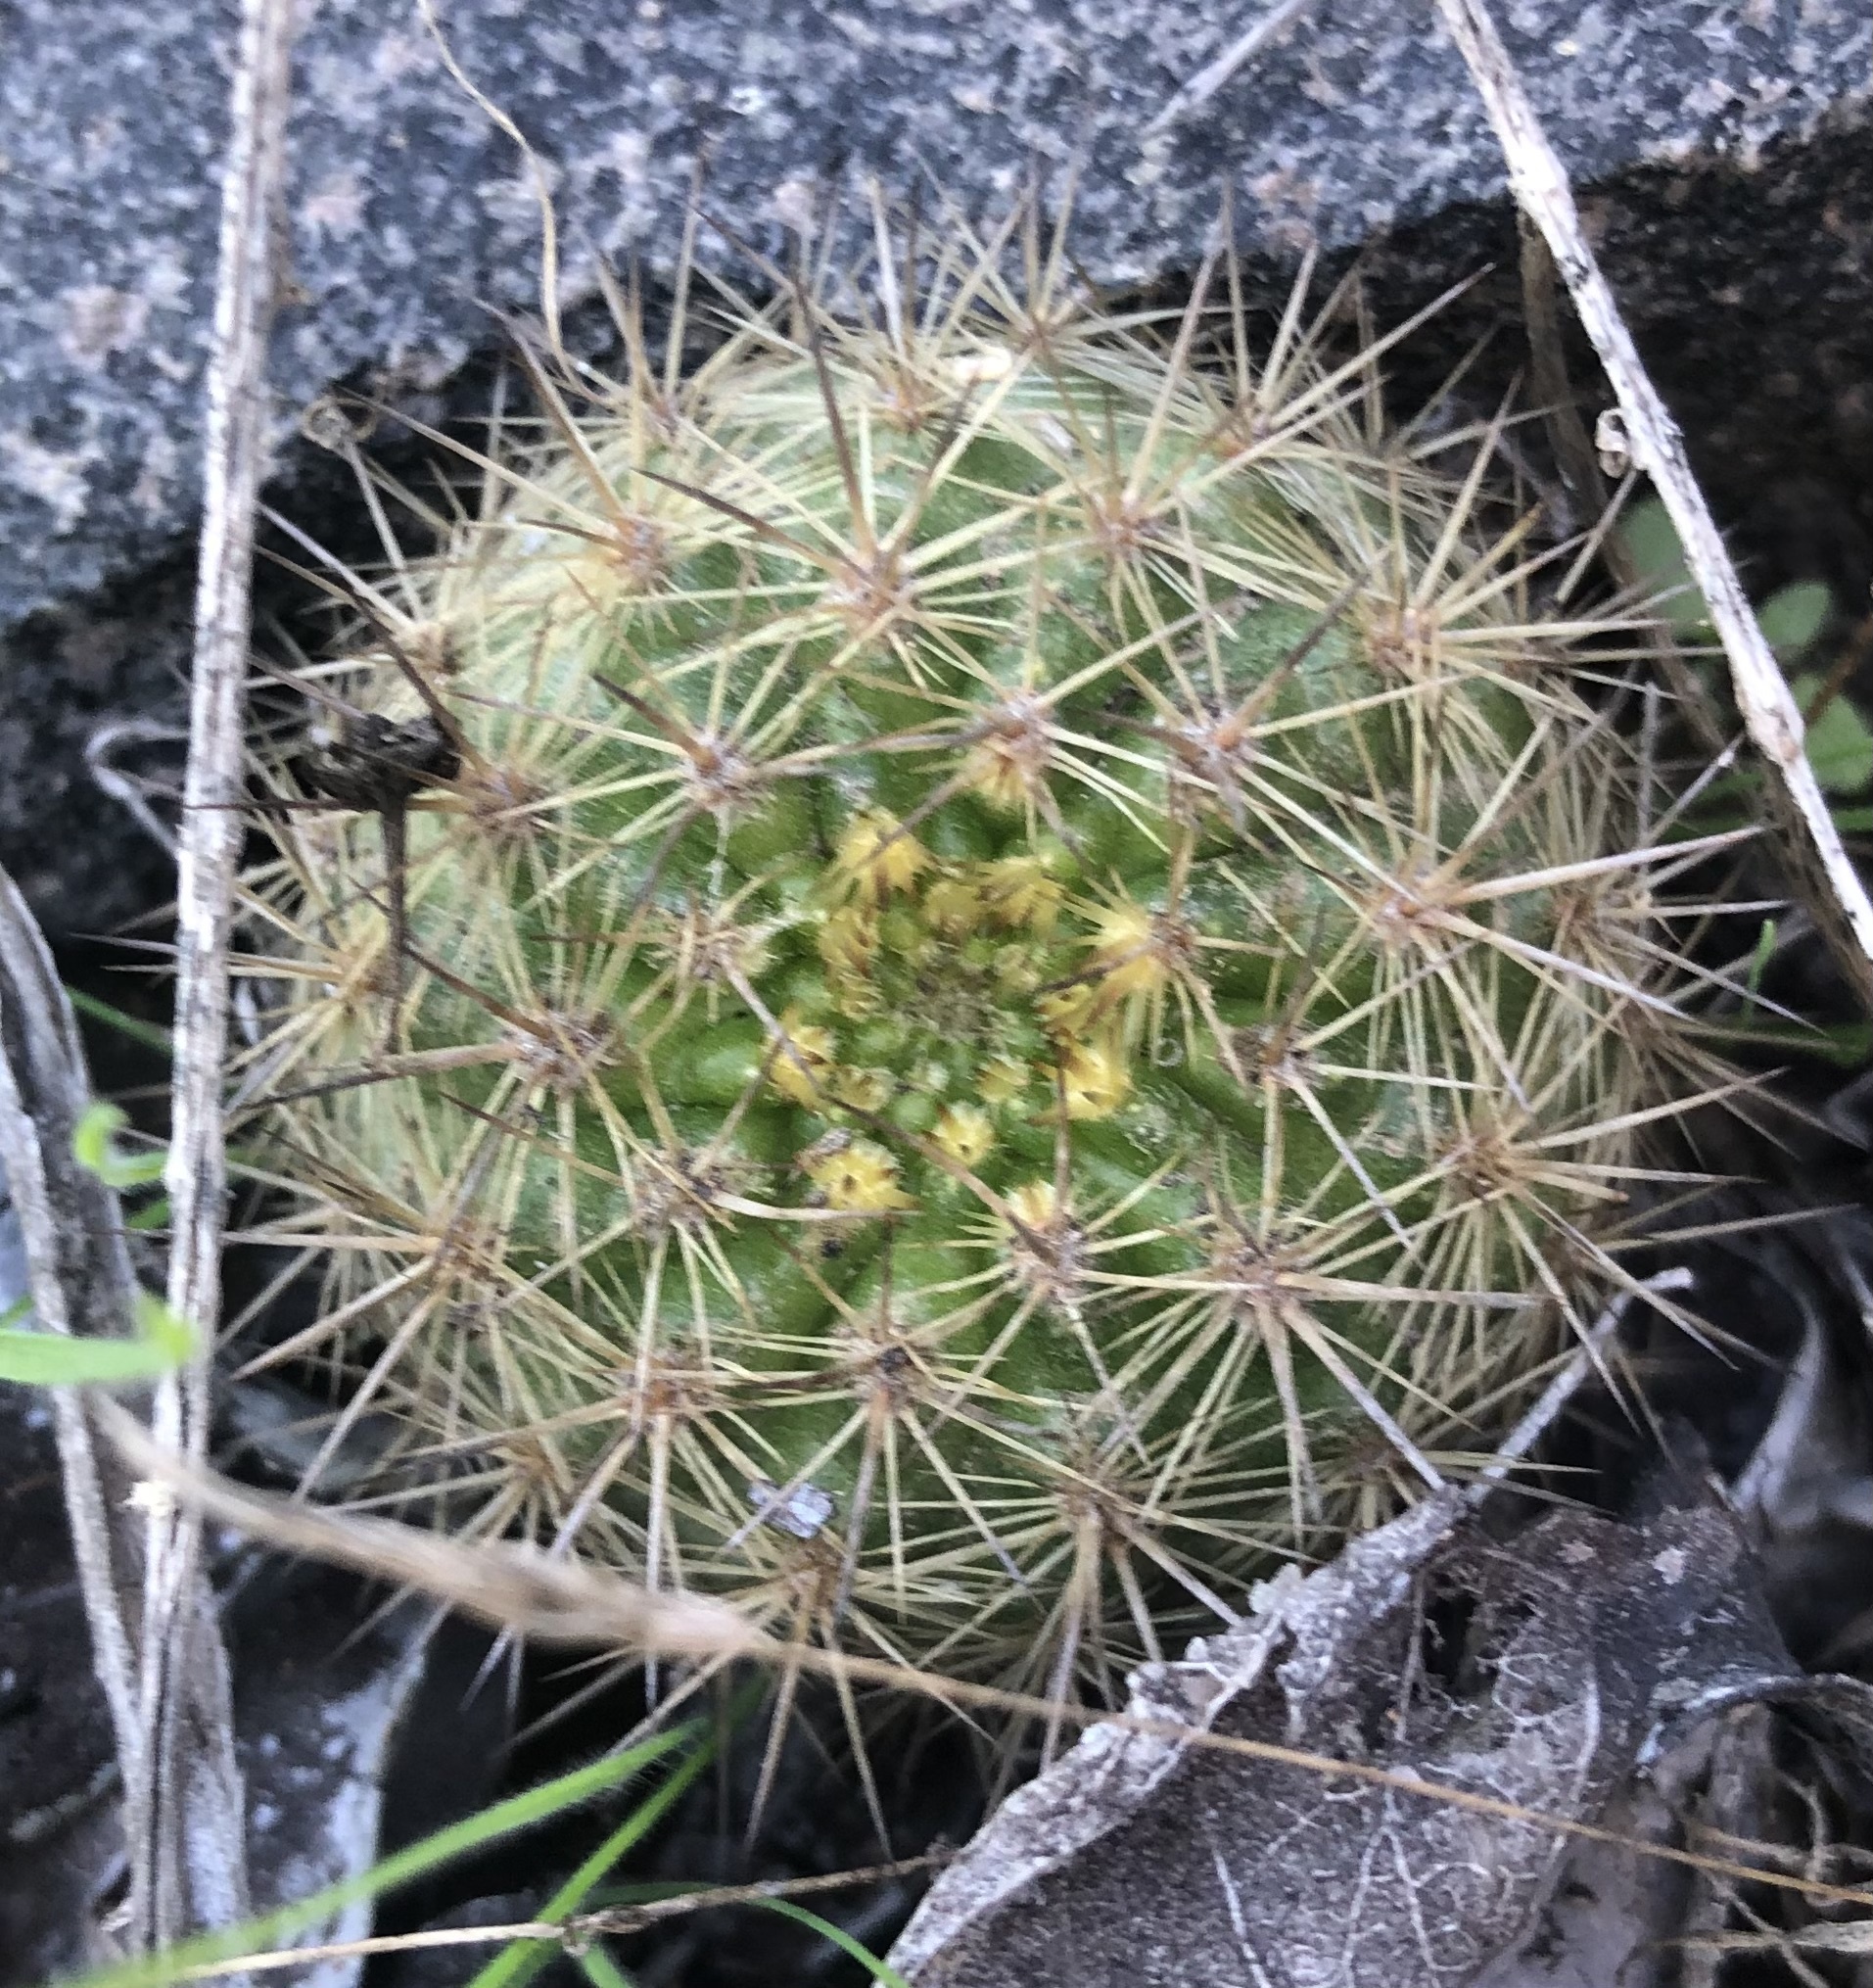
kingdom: Plantae
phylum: Tracheophyta
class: Magnoliopsida
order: Caryophyllales
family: Cactaceae
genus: Eriosyce
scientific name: Eriosyce subgibbosa
